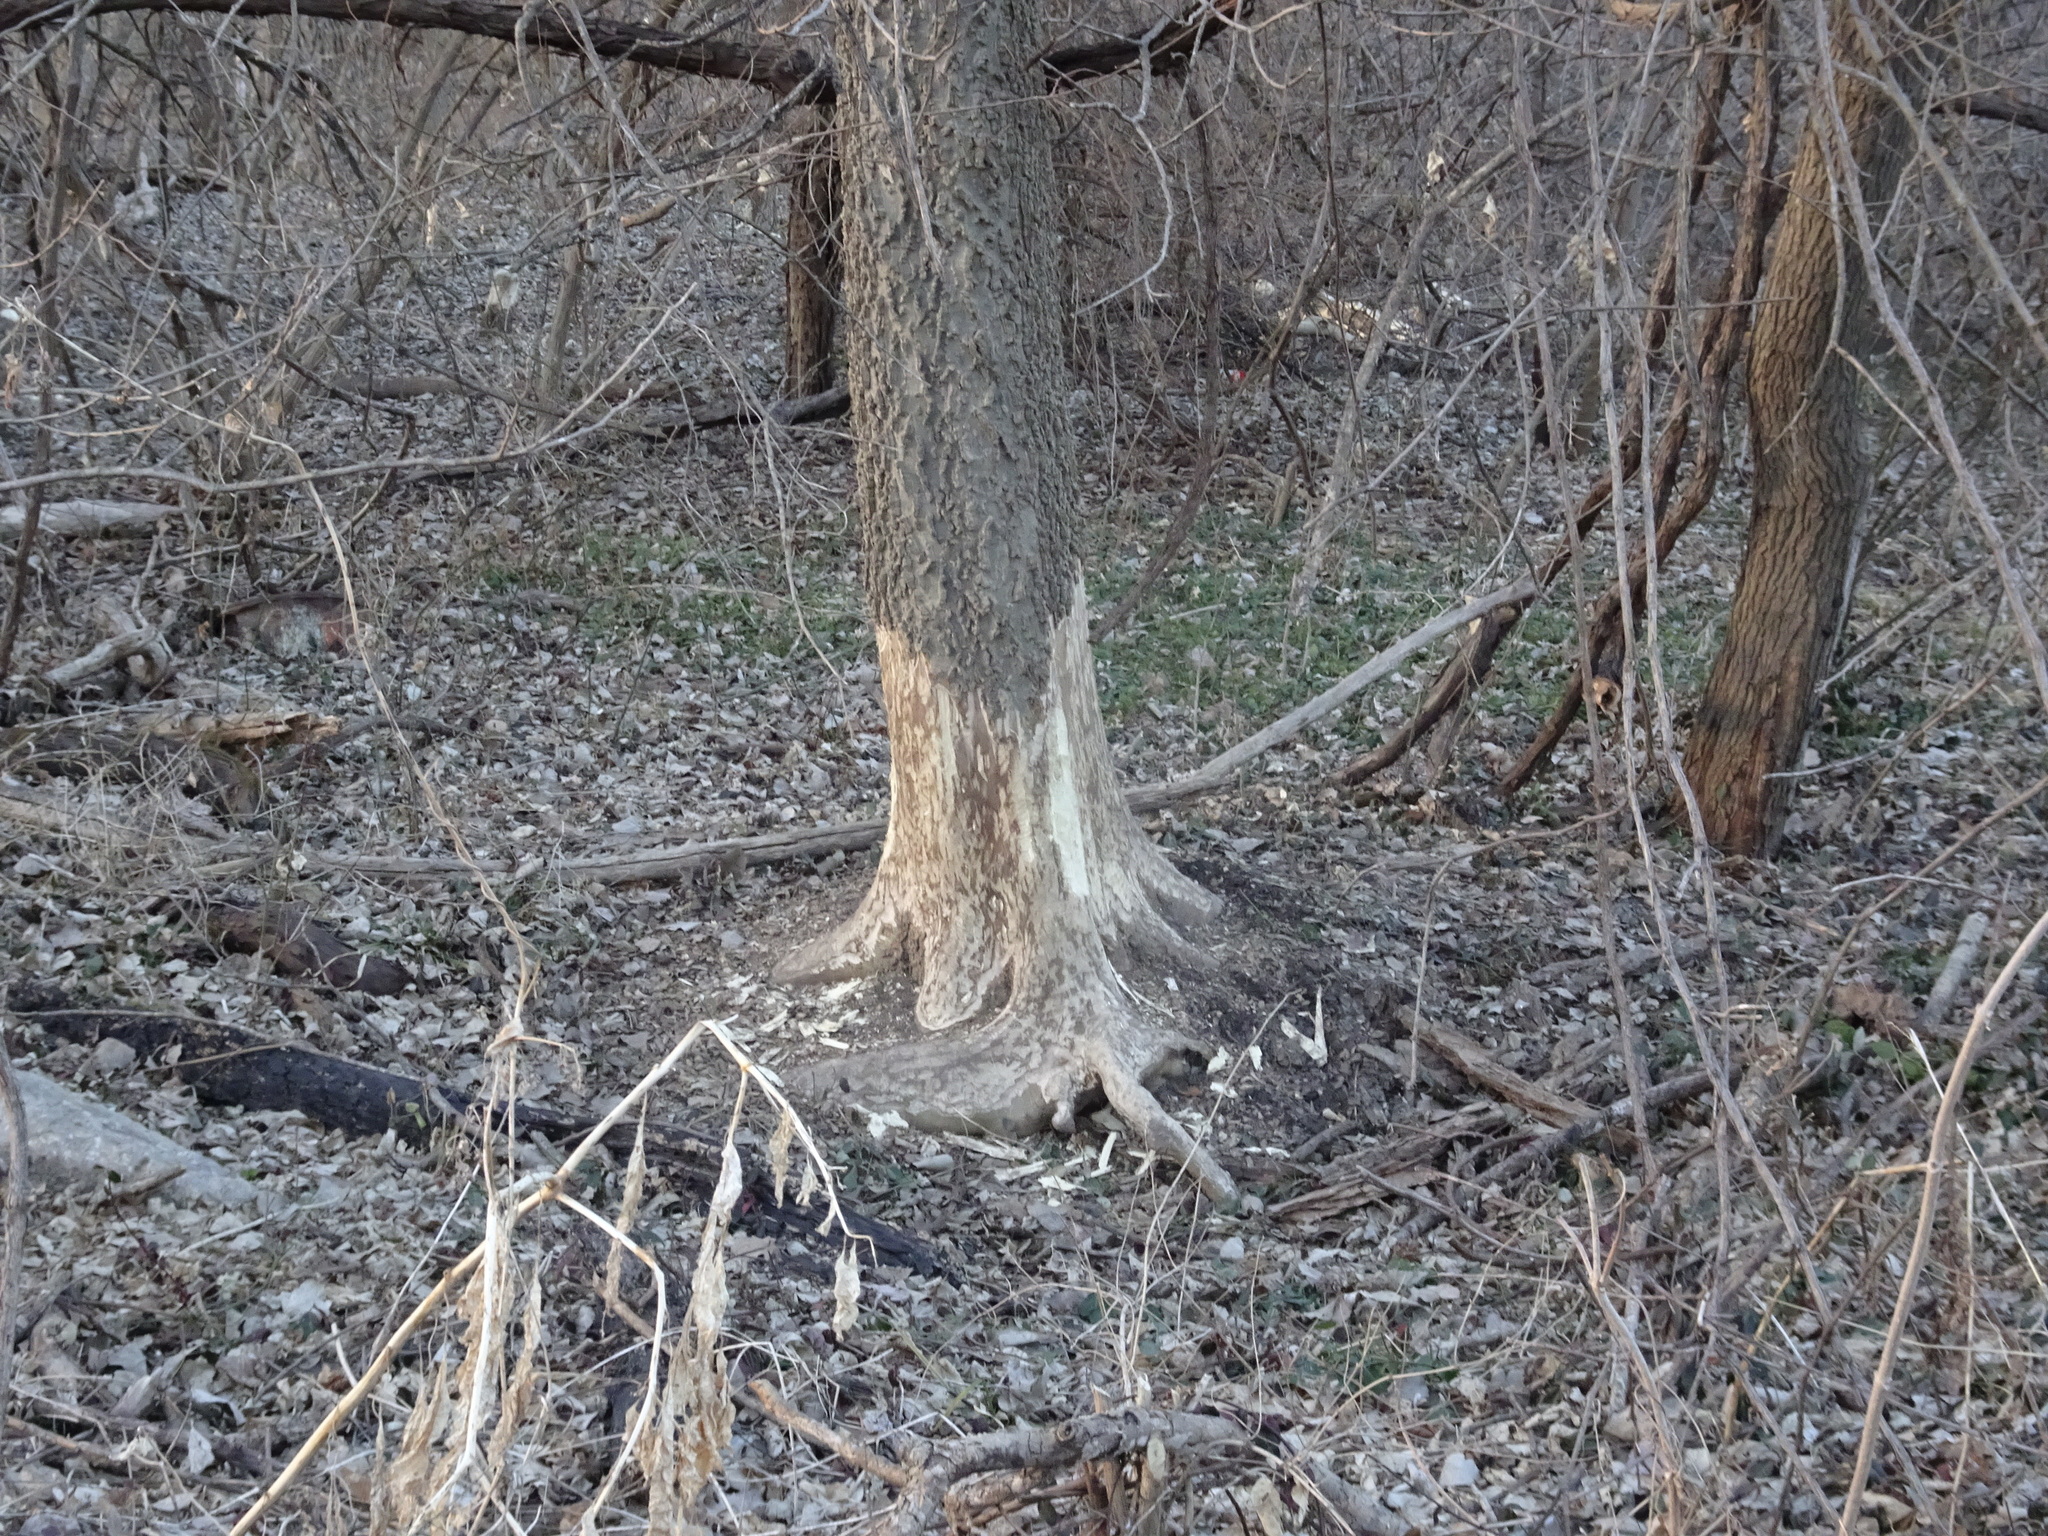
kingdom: Animalia
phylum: Chordata
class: Mammalia
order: Rodentia
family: Castoridae
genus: Castor
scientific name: Castor canadensis
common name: American beaver
